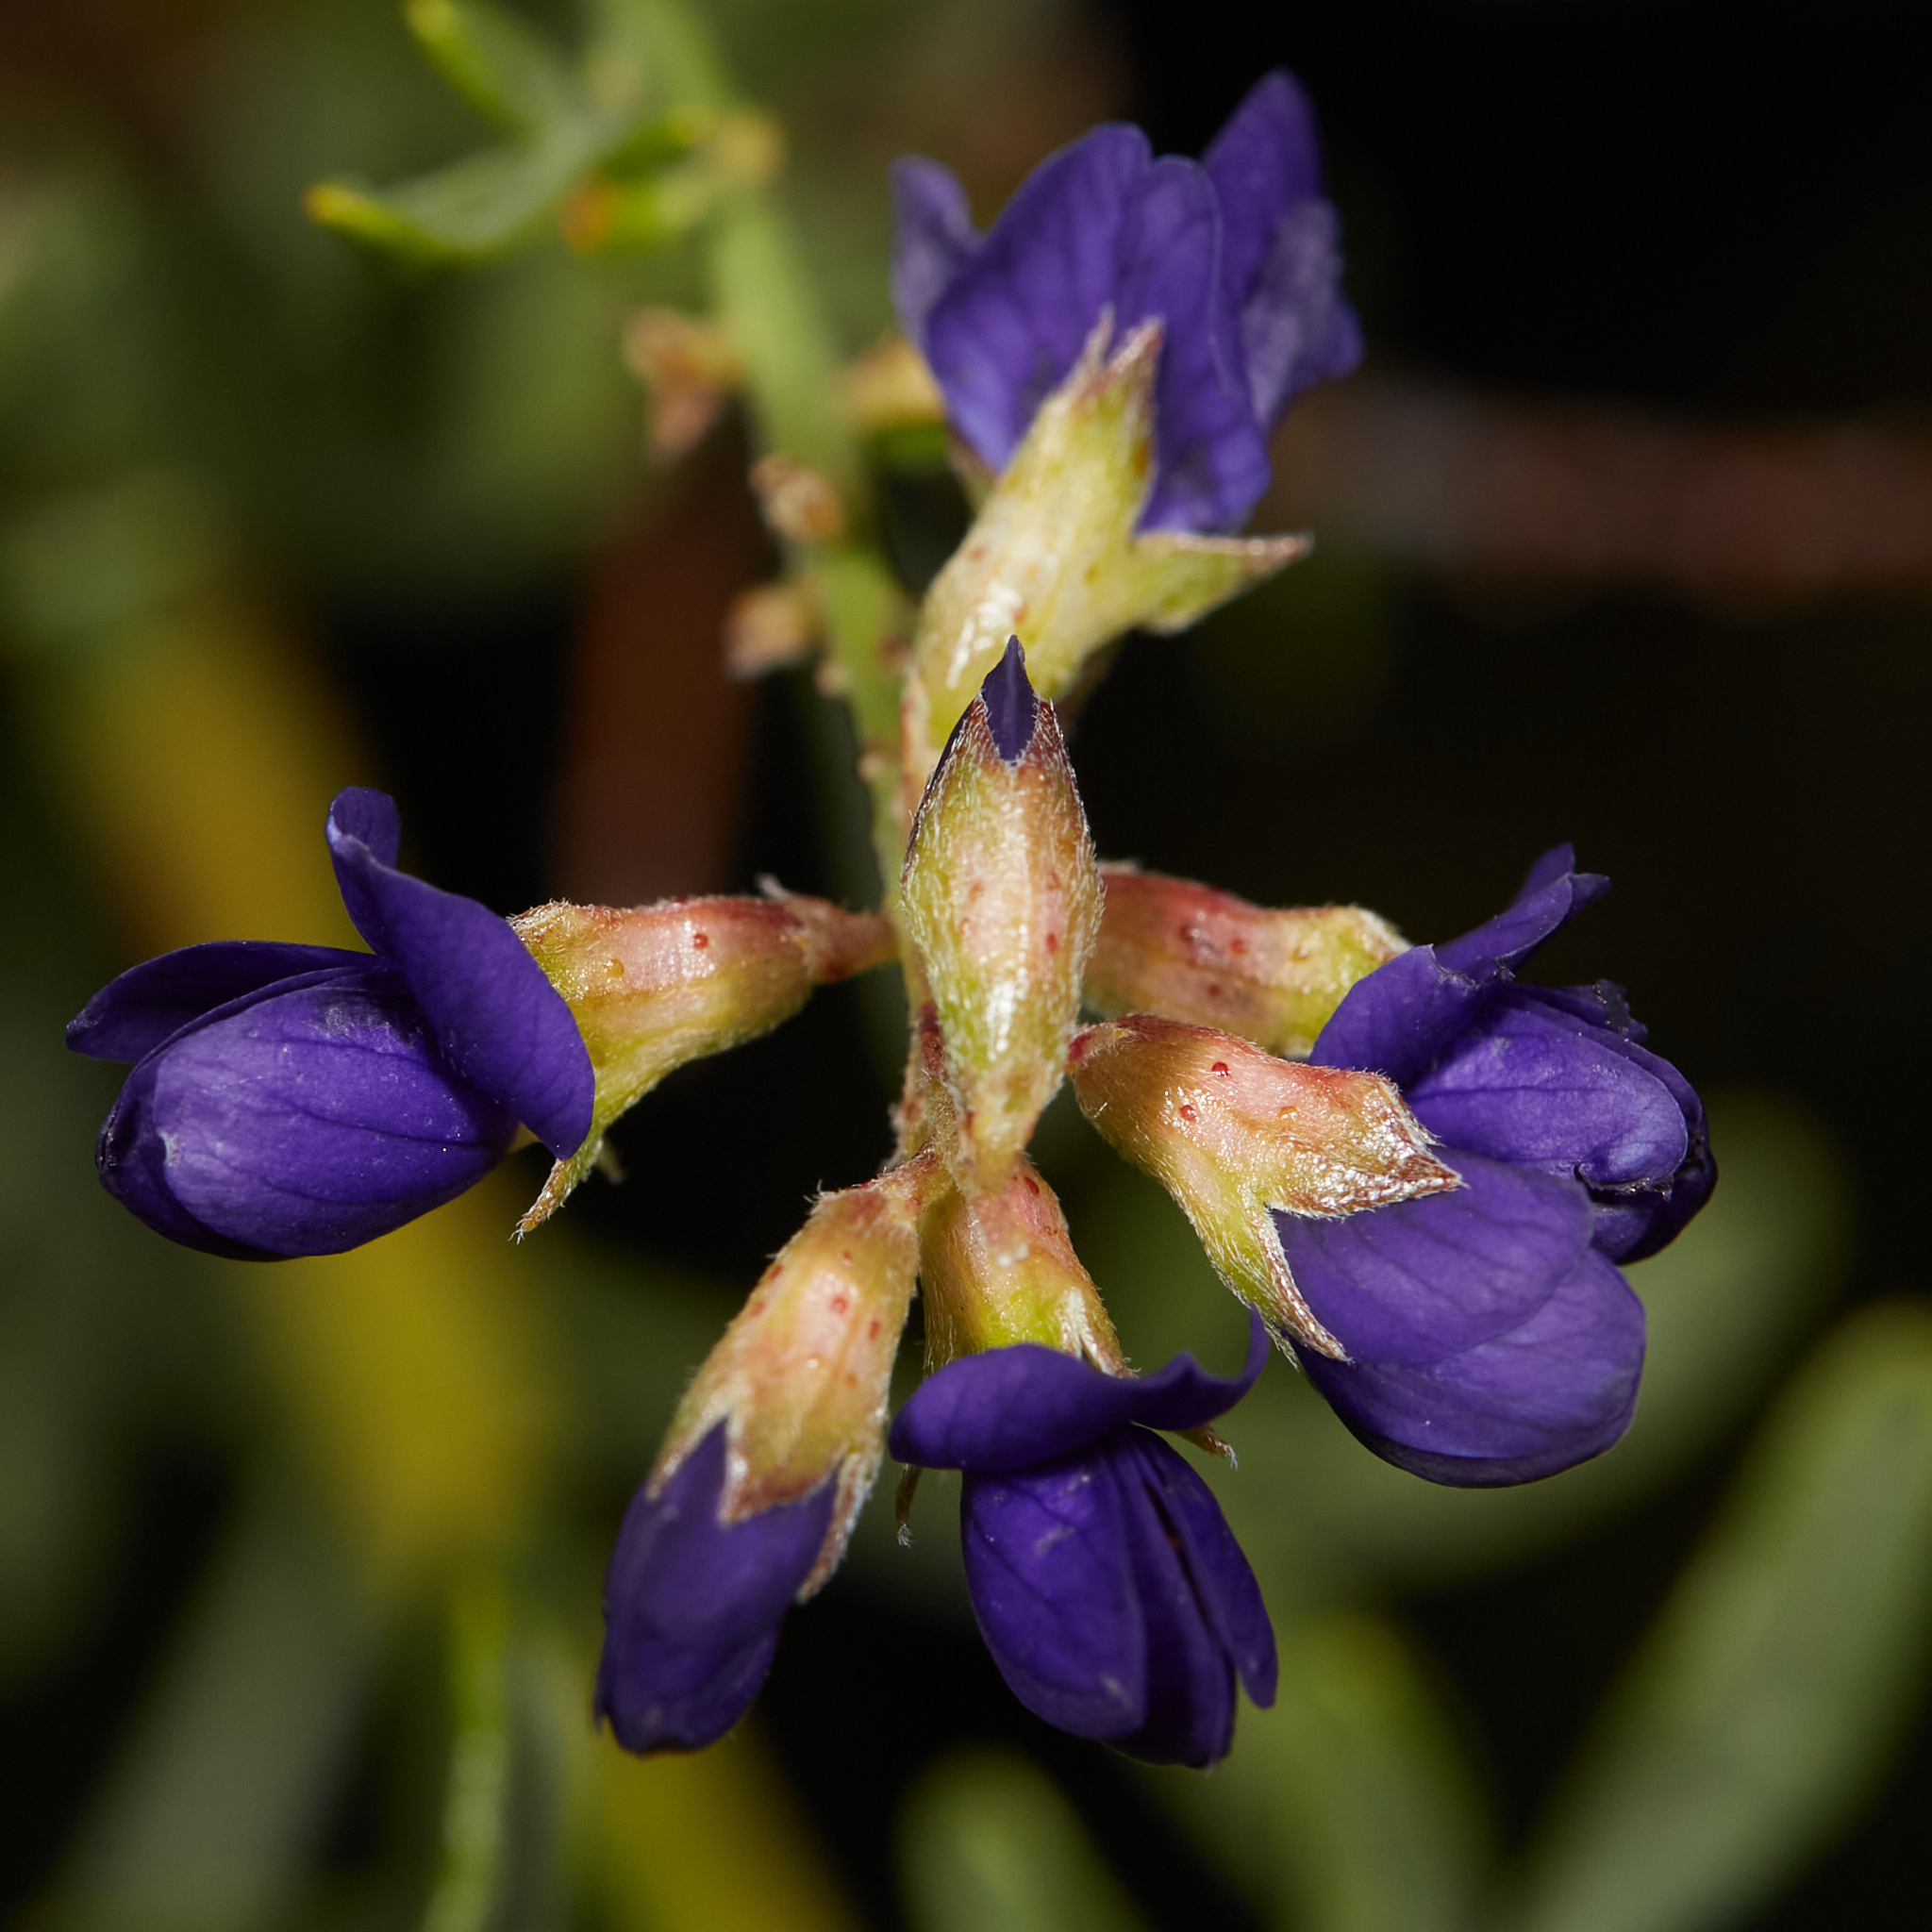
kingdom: Plantae
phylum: Tracheophyta
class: Magnoliopsida
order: Fabales
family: Fabaceae
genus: Psorothamnus
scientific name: Psorothamnus arborescens
